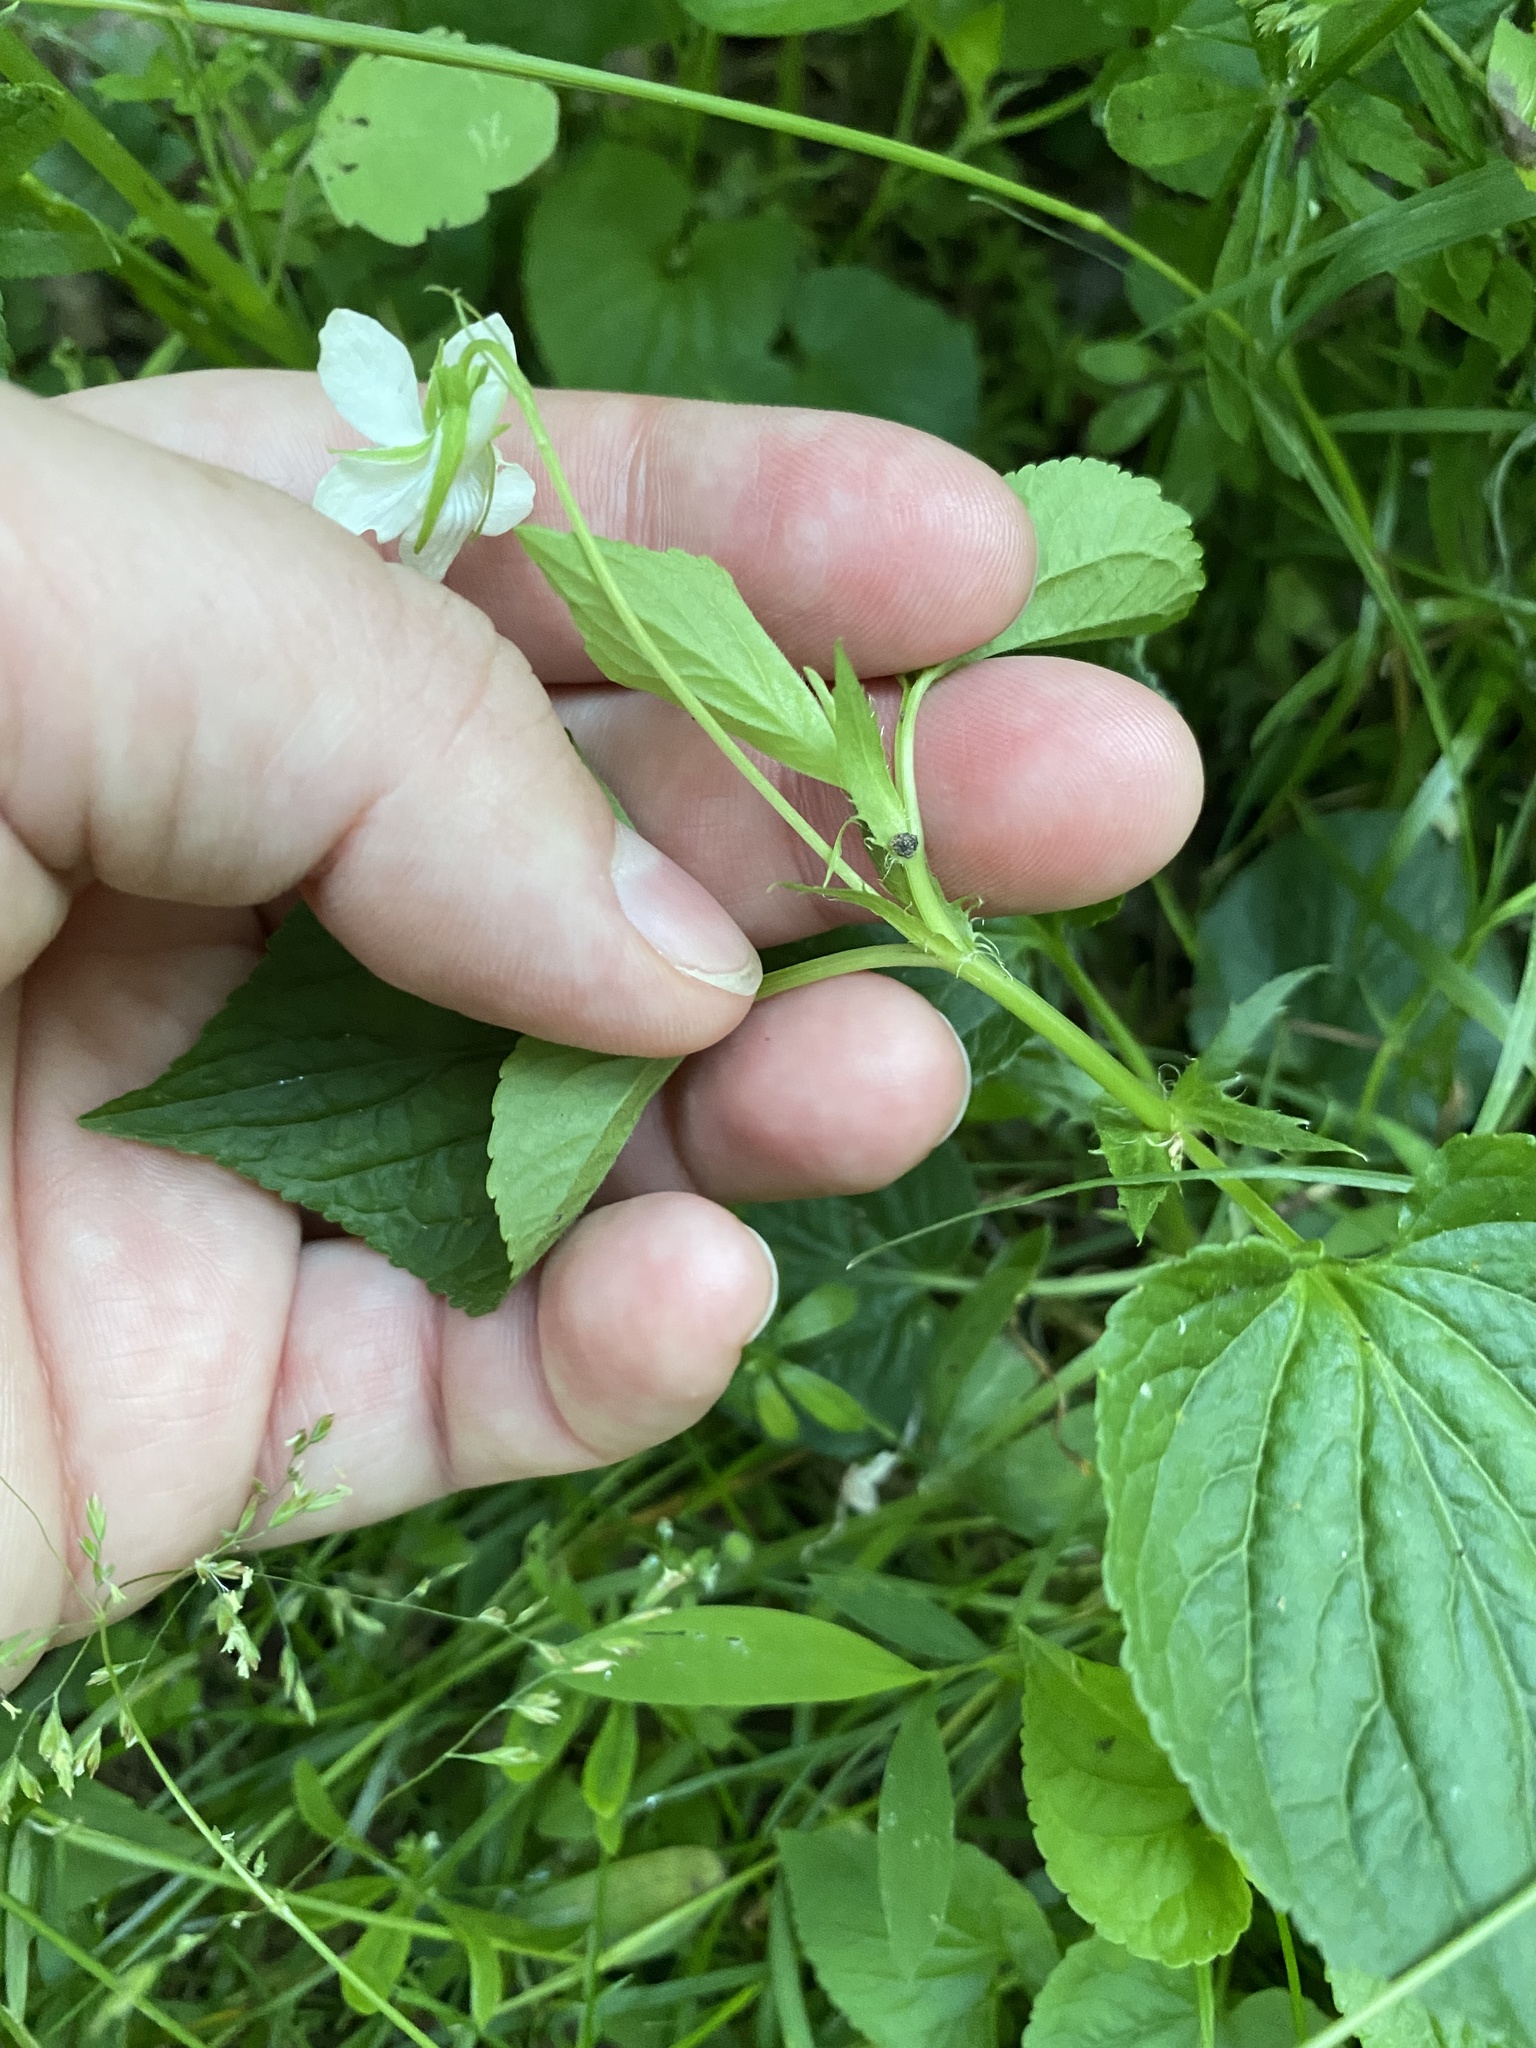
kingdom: Plantae
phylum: Tracheophyta
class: Magnoliopsida
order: Malpighiales
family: Violaceae
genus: Viola
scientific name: Viola striata
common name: Cream violet
